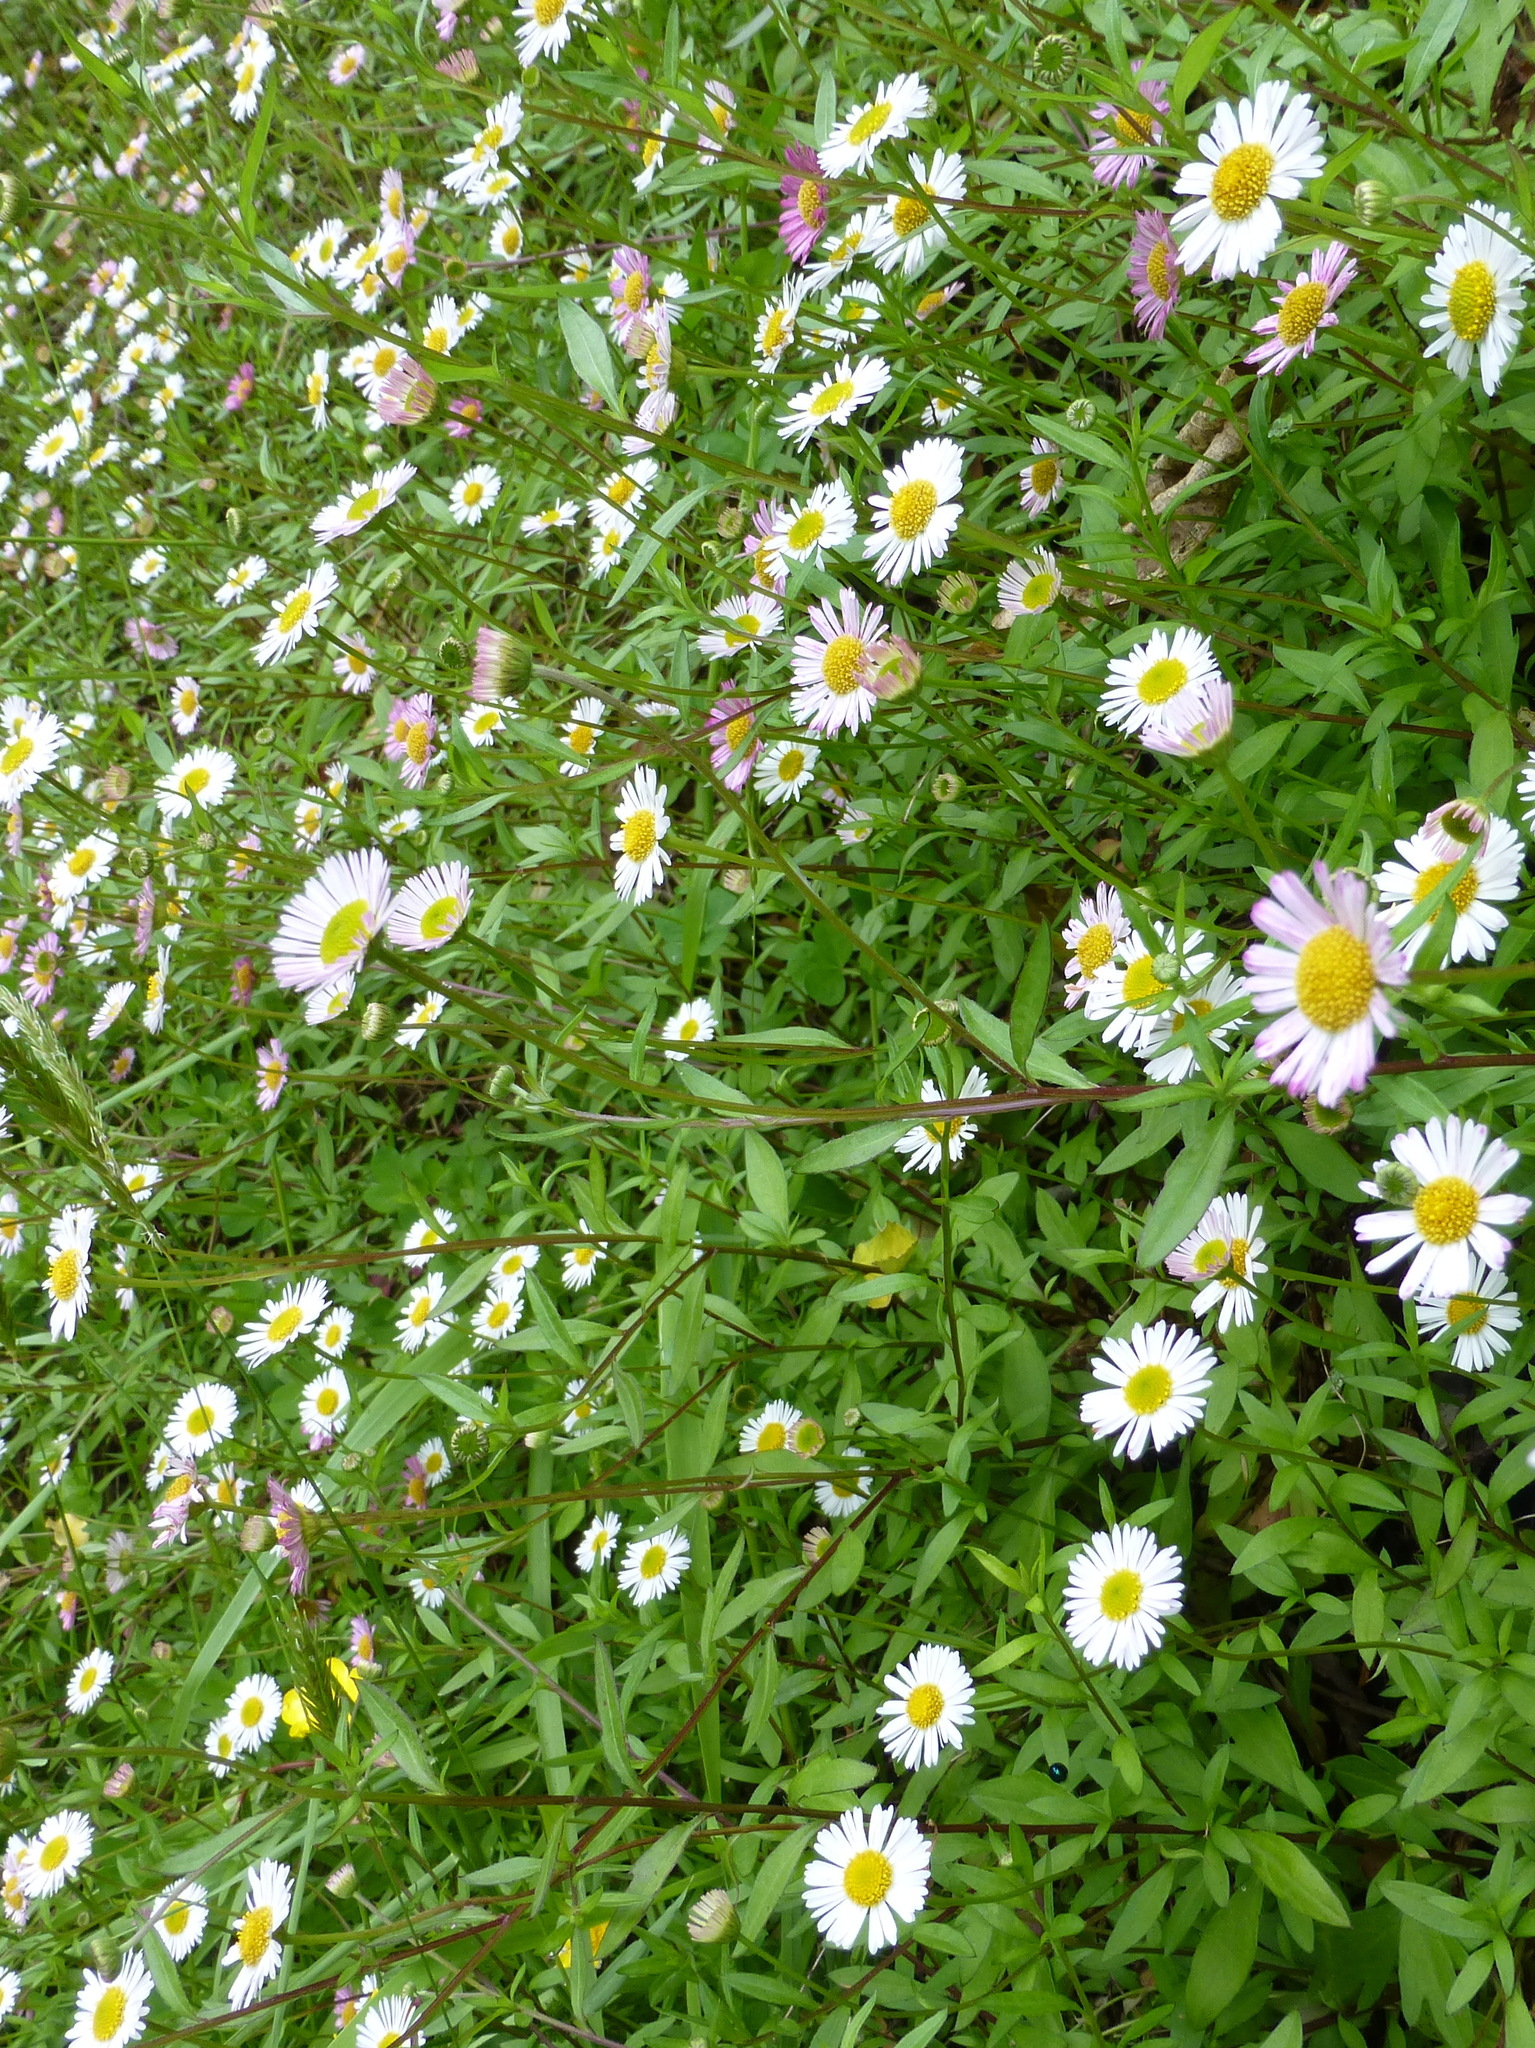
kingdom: Plantae
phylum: Tracheophyta
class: Magnoliopsida
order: Asterales
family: Asteraceae
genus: Erigeron
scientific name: Erigeron karvinskianus
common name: Mexican fleabane
